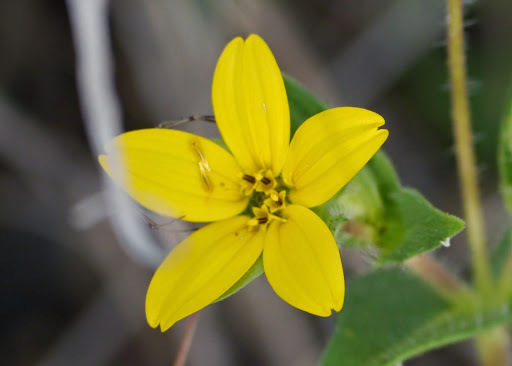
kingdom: Plantae
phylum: Tracheophyta
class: Magnoliopsida
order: Asterales
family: Asteraceae
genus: Lindheimera
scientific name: Lindheimera texana
